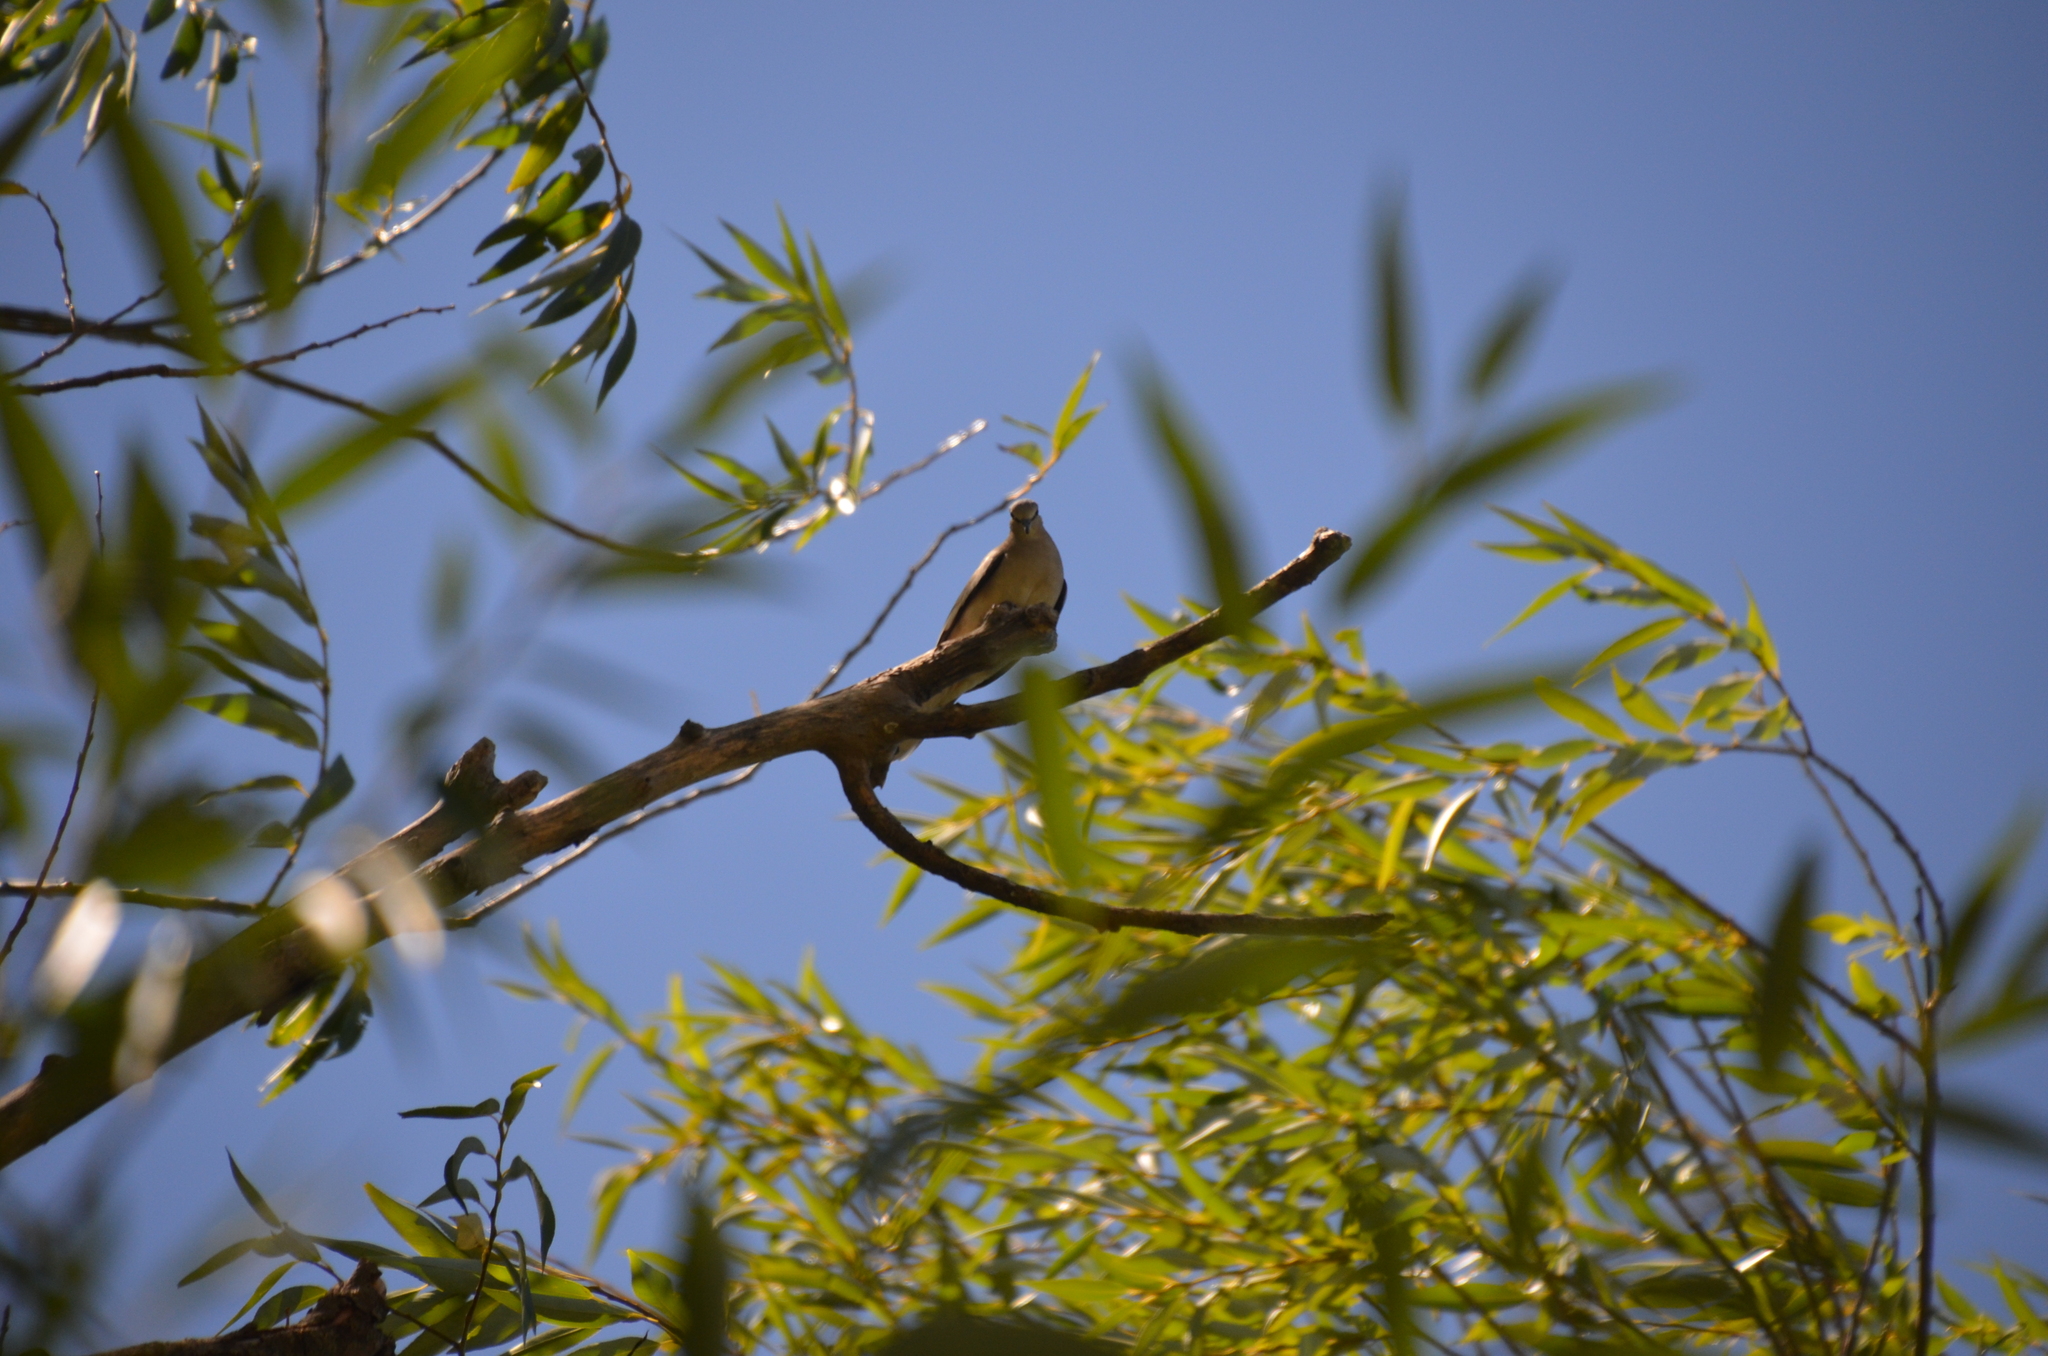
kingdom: Animalia
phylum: Chordata
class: Aves
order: Columbiformes
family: Columbidae
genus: Columbina
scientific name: Columbina picui
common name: Picui ground dove
